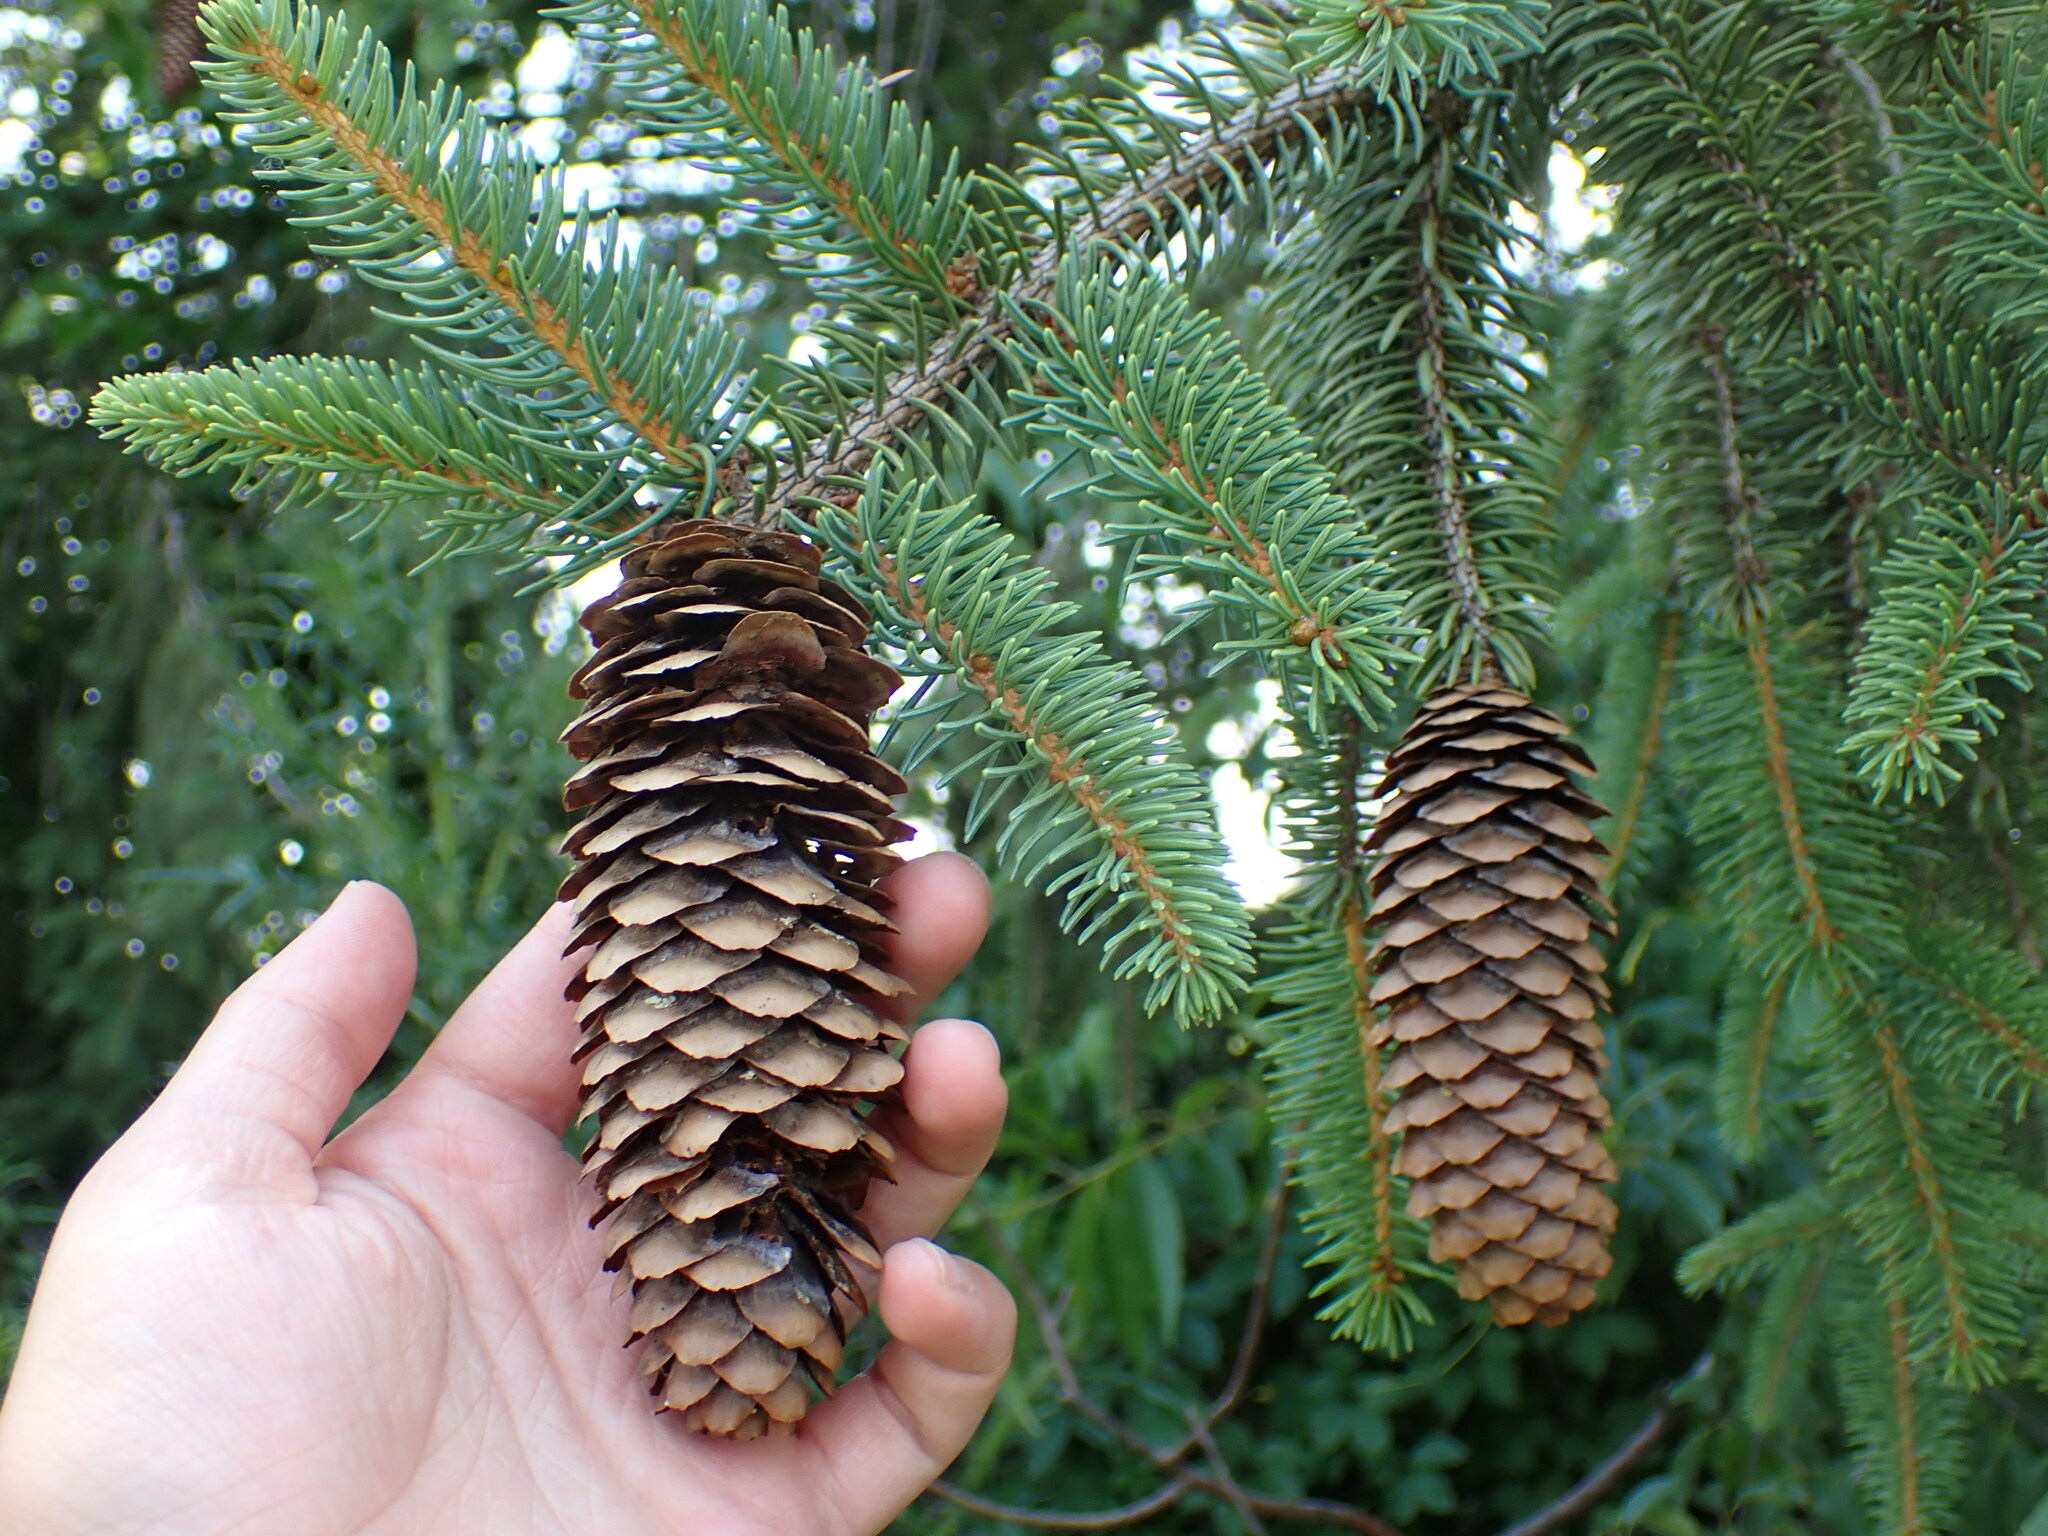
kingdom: Plantae
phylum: Tracheophyta
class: Pinopsida
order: Pinales
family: Pinaceae
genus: Picea
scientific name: Picea abies
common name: Norway spruce
